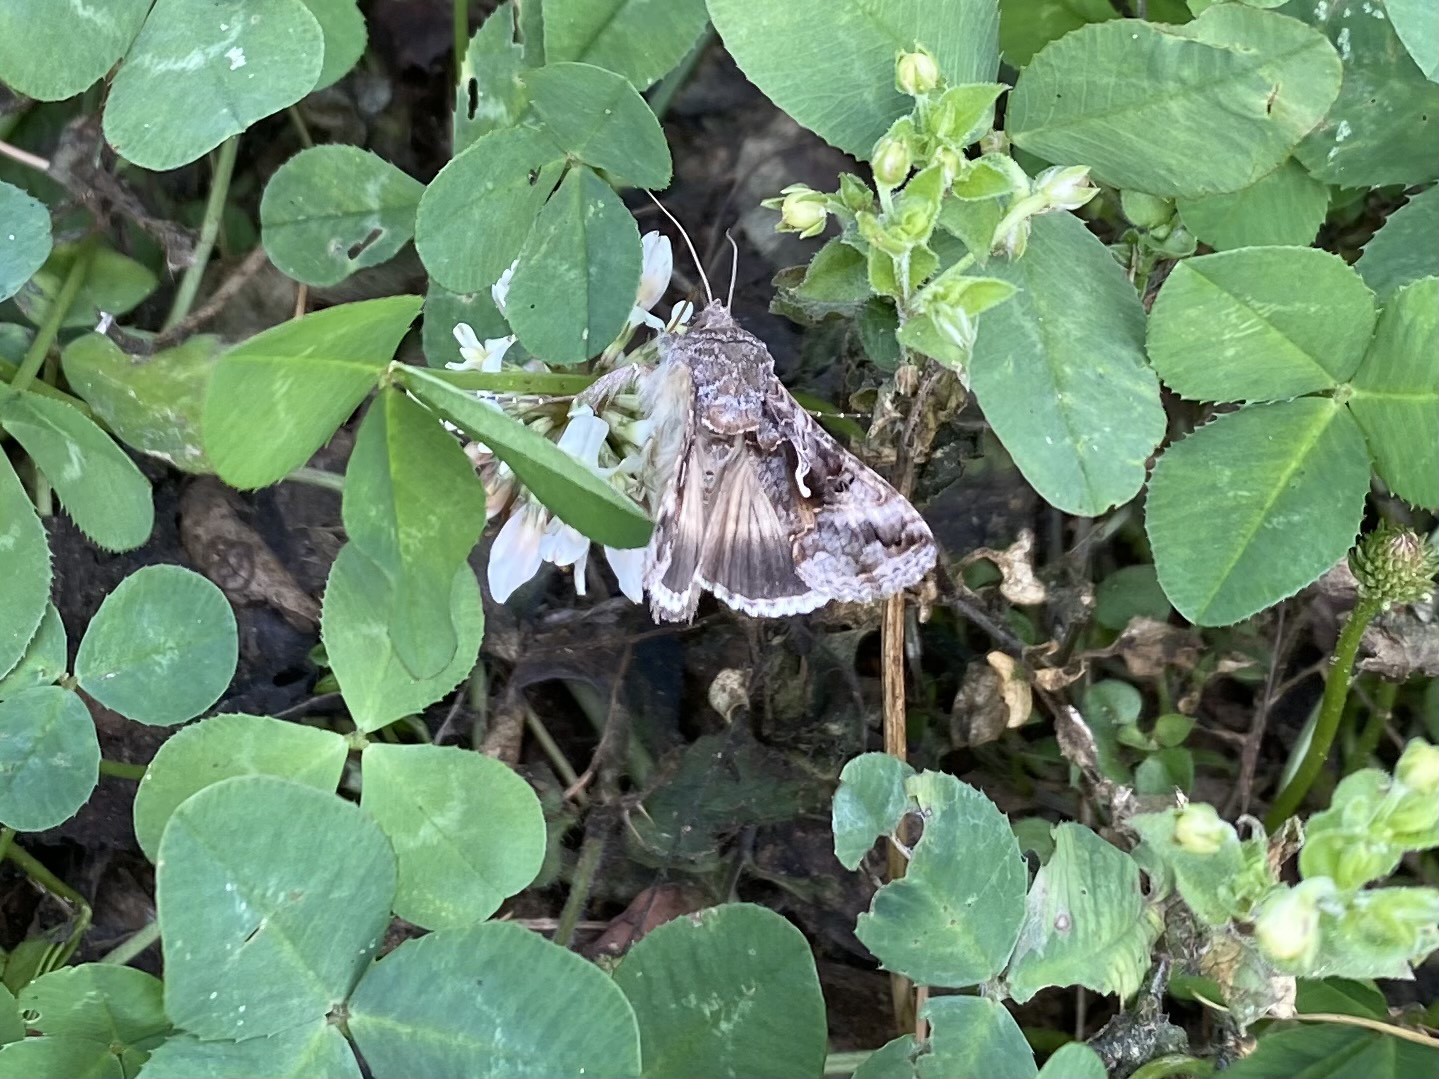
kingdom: Animalia
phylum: Arthropoda
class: Insecta
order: Lepidoptera
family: Noctuidae
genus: Autographa
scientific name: Autographa gamma
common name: Silver y
